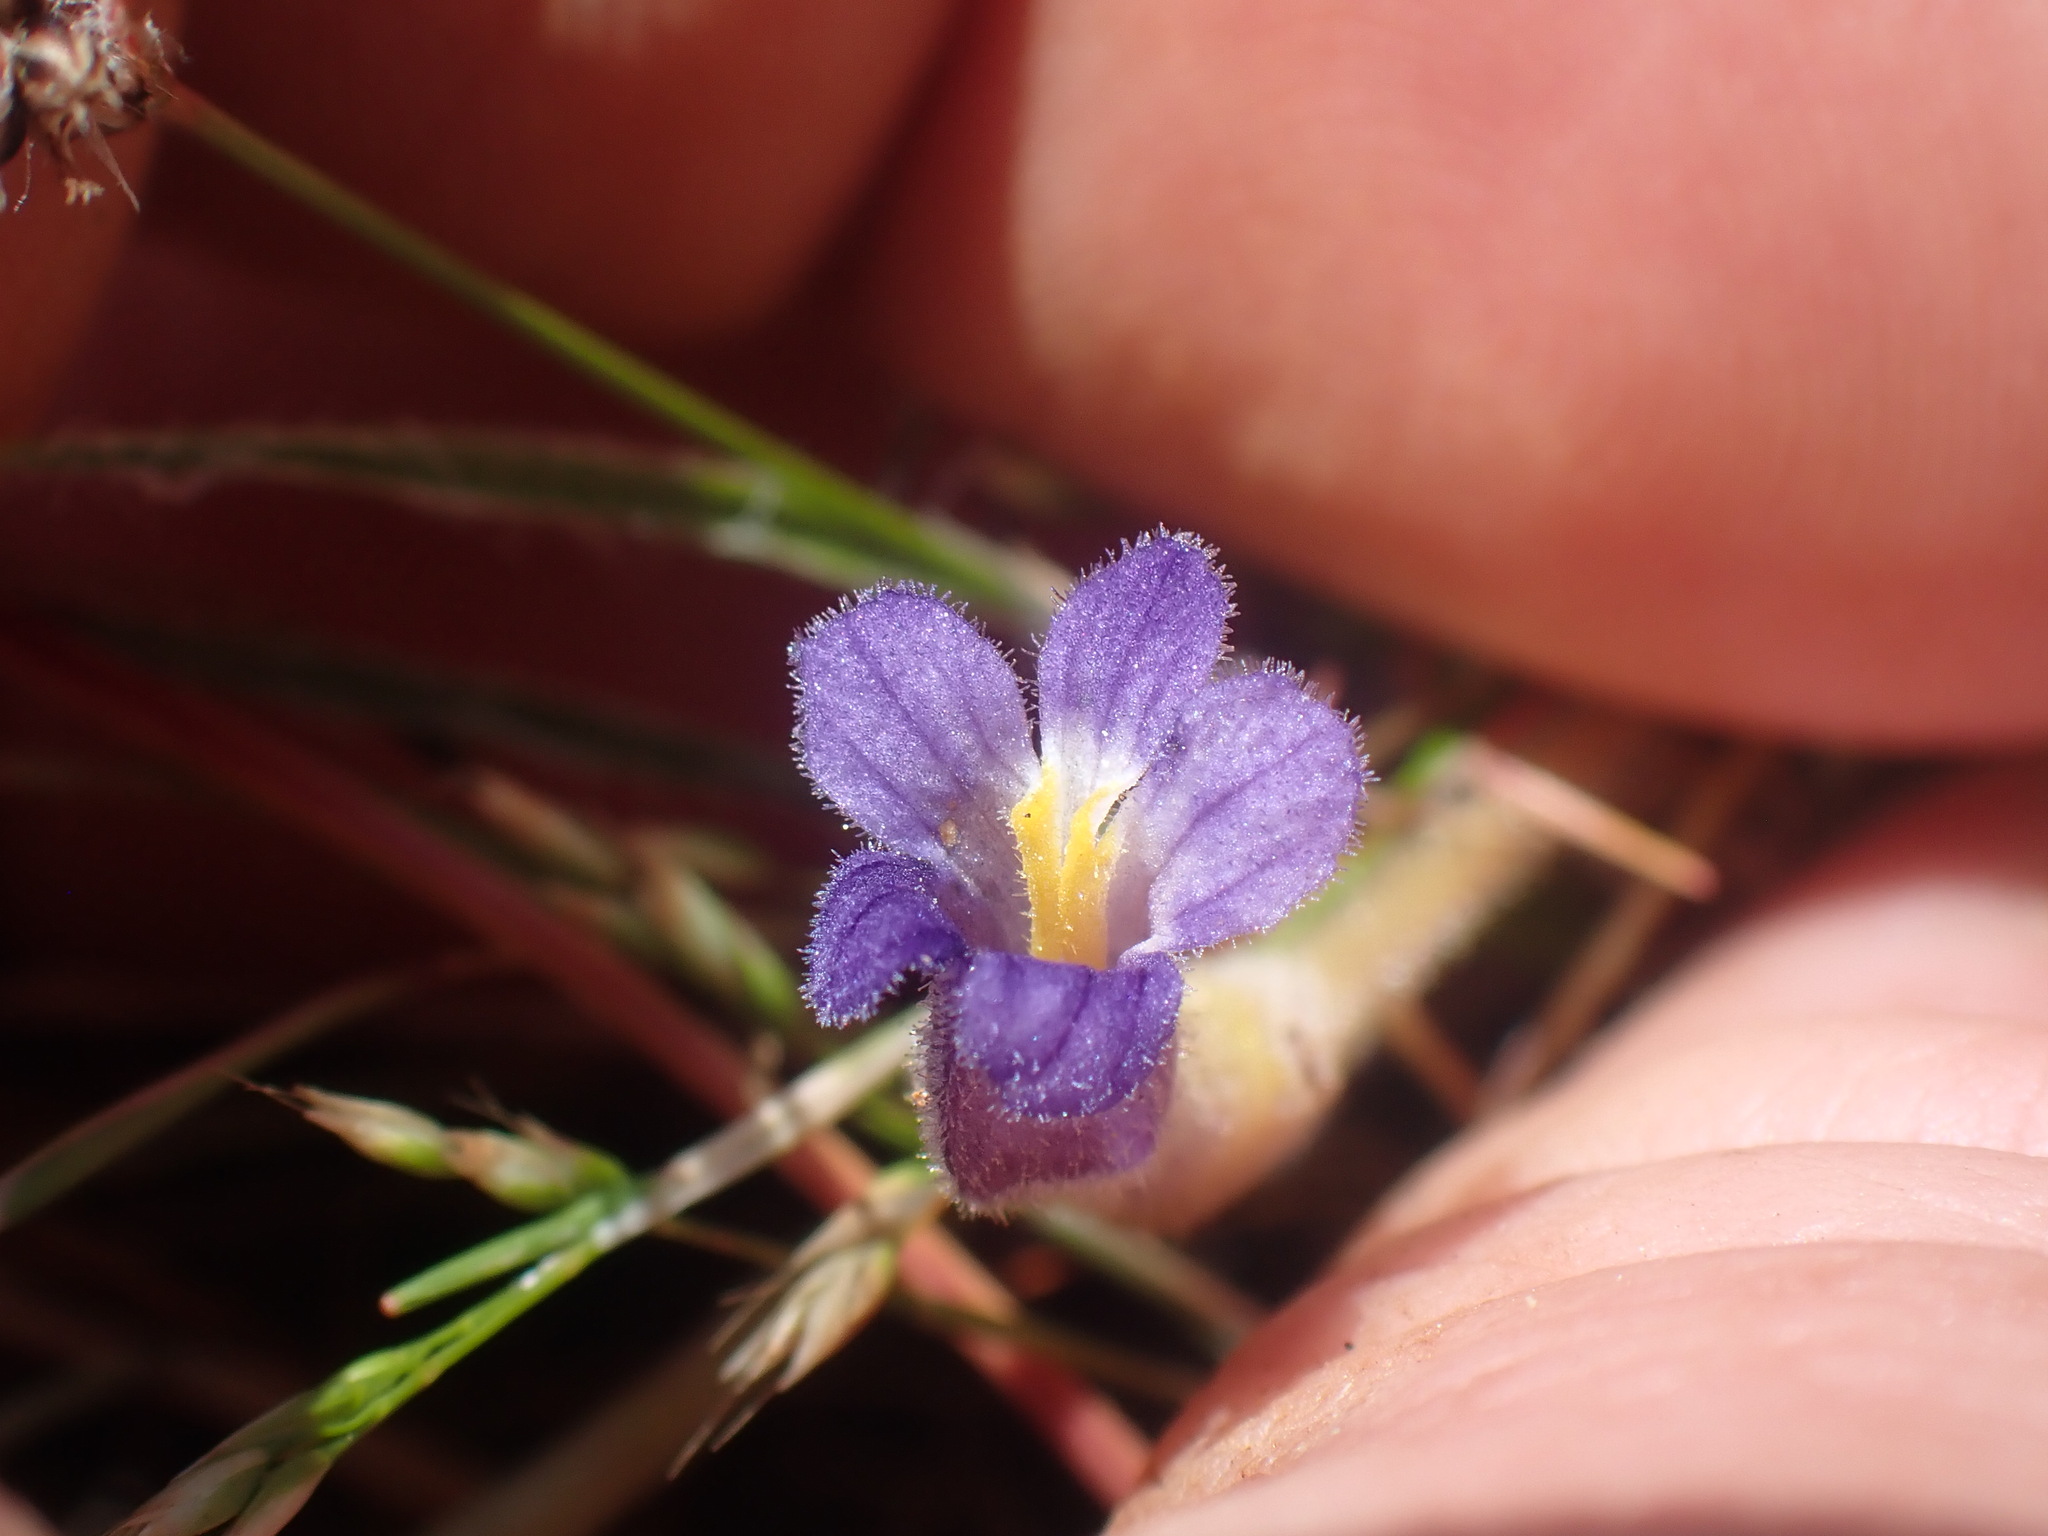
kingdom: Plantae
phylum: Tracheophyta
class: Magnoliopsida
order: Lamiales
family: Orobanchaceae
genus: Aphyllon
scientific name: Aphyllon uniflorum
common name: One-flowered broomrape
